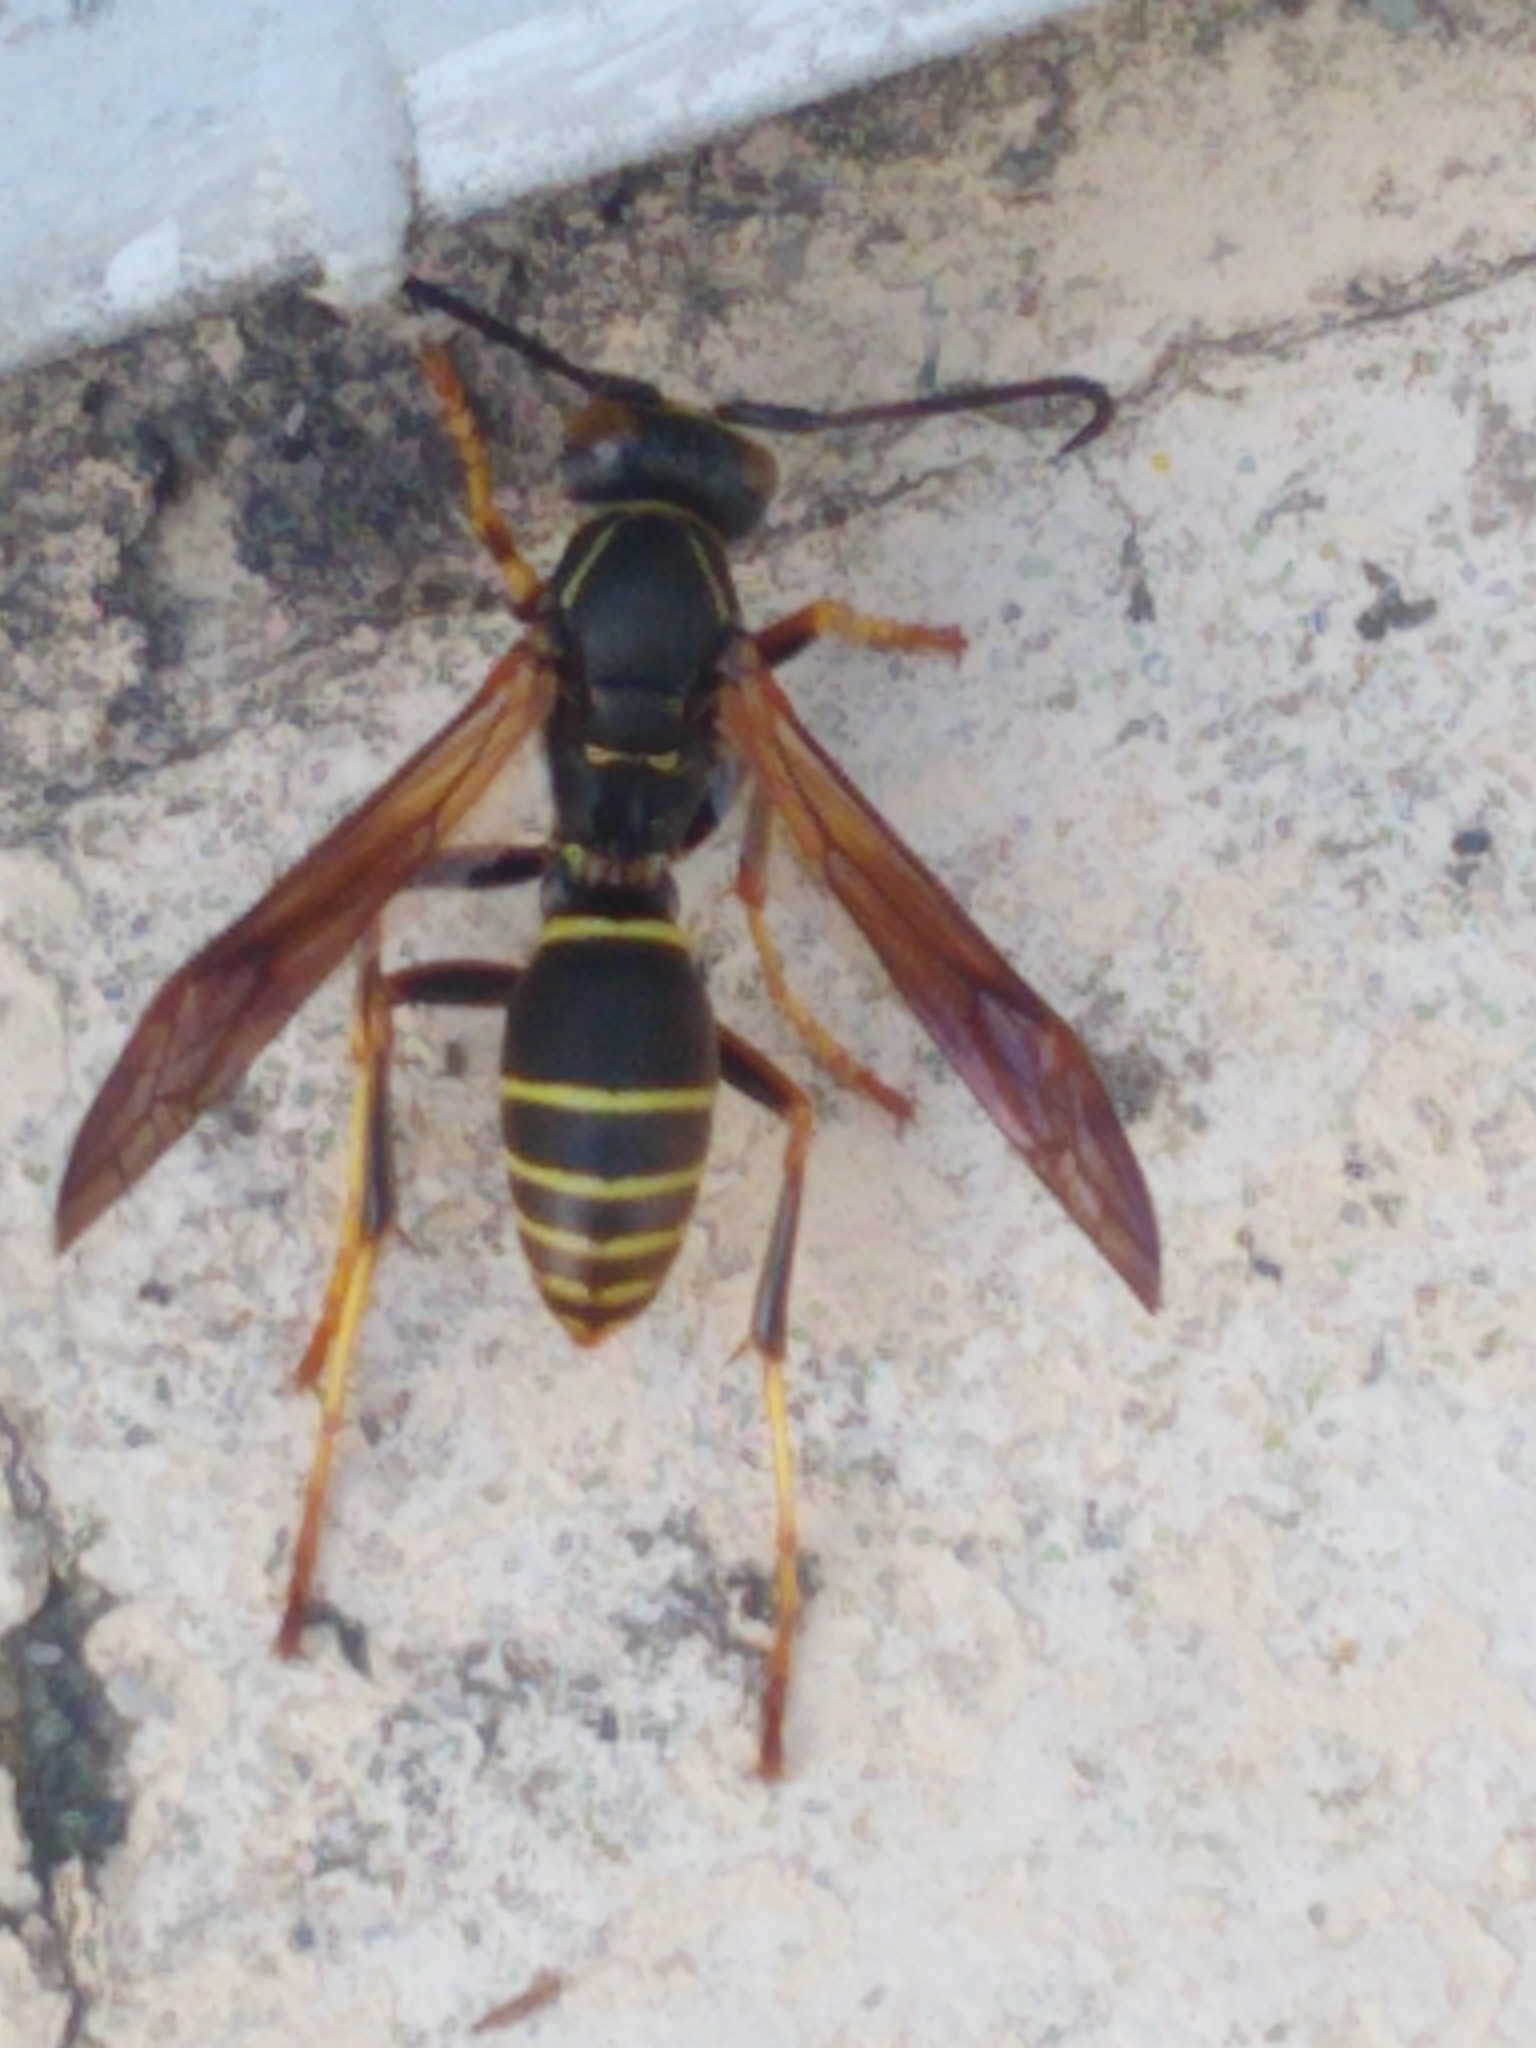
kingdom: Animalia
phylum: Arthropoda
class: Insecta
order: Hymenoptera
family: Eumenidae
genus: Polistes
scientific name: Polistes fuscatus
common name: Dark paper wasp
